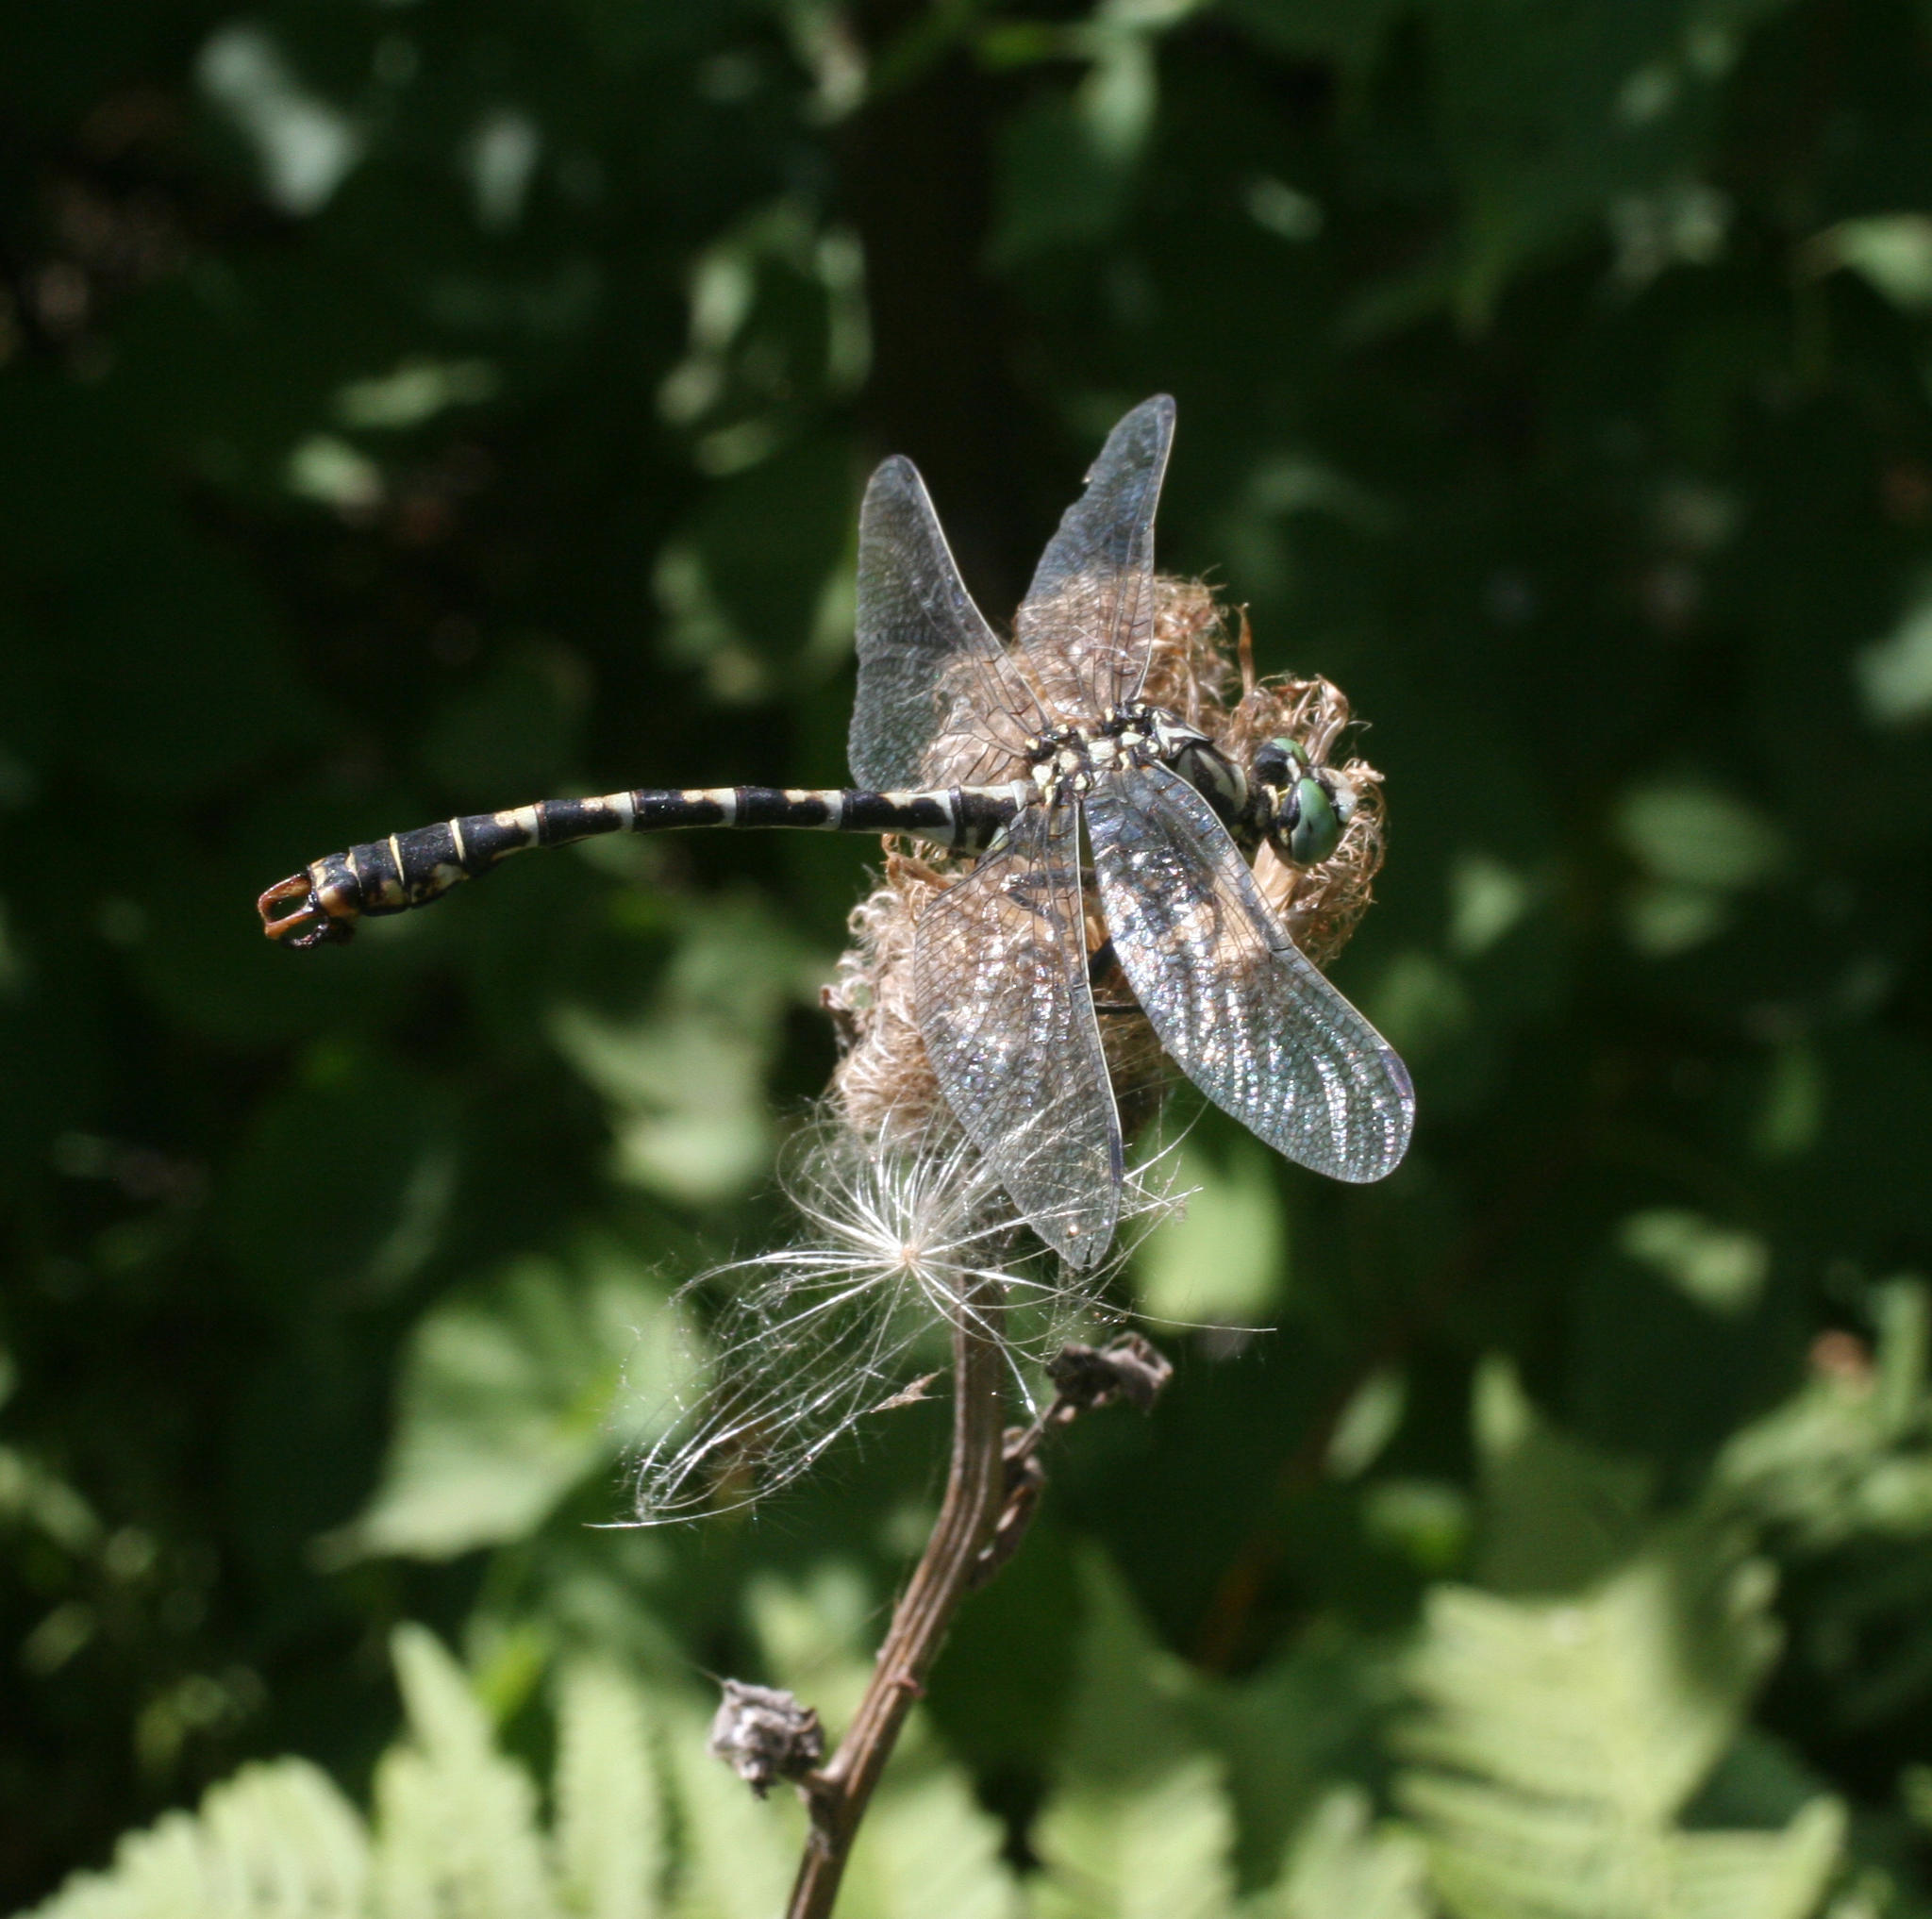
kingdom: Animalia
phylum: Arthropoda
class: Insecta
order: Odonata
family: Gomphidae
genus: Onychogomphus
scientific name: Onychogomphus forcipatus
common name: Small pincertail
